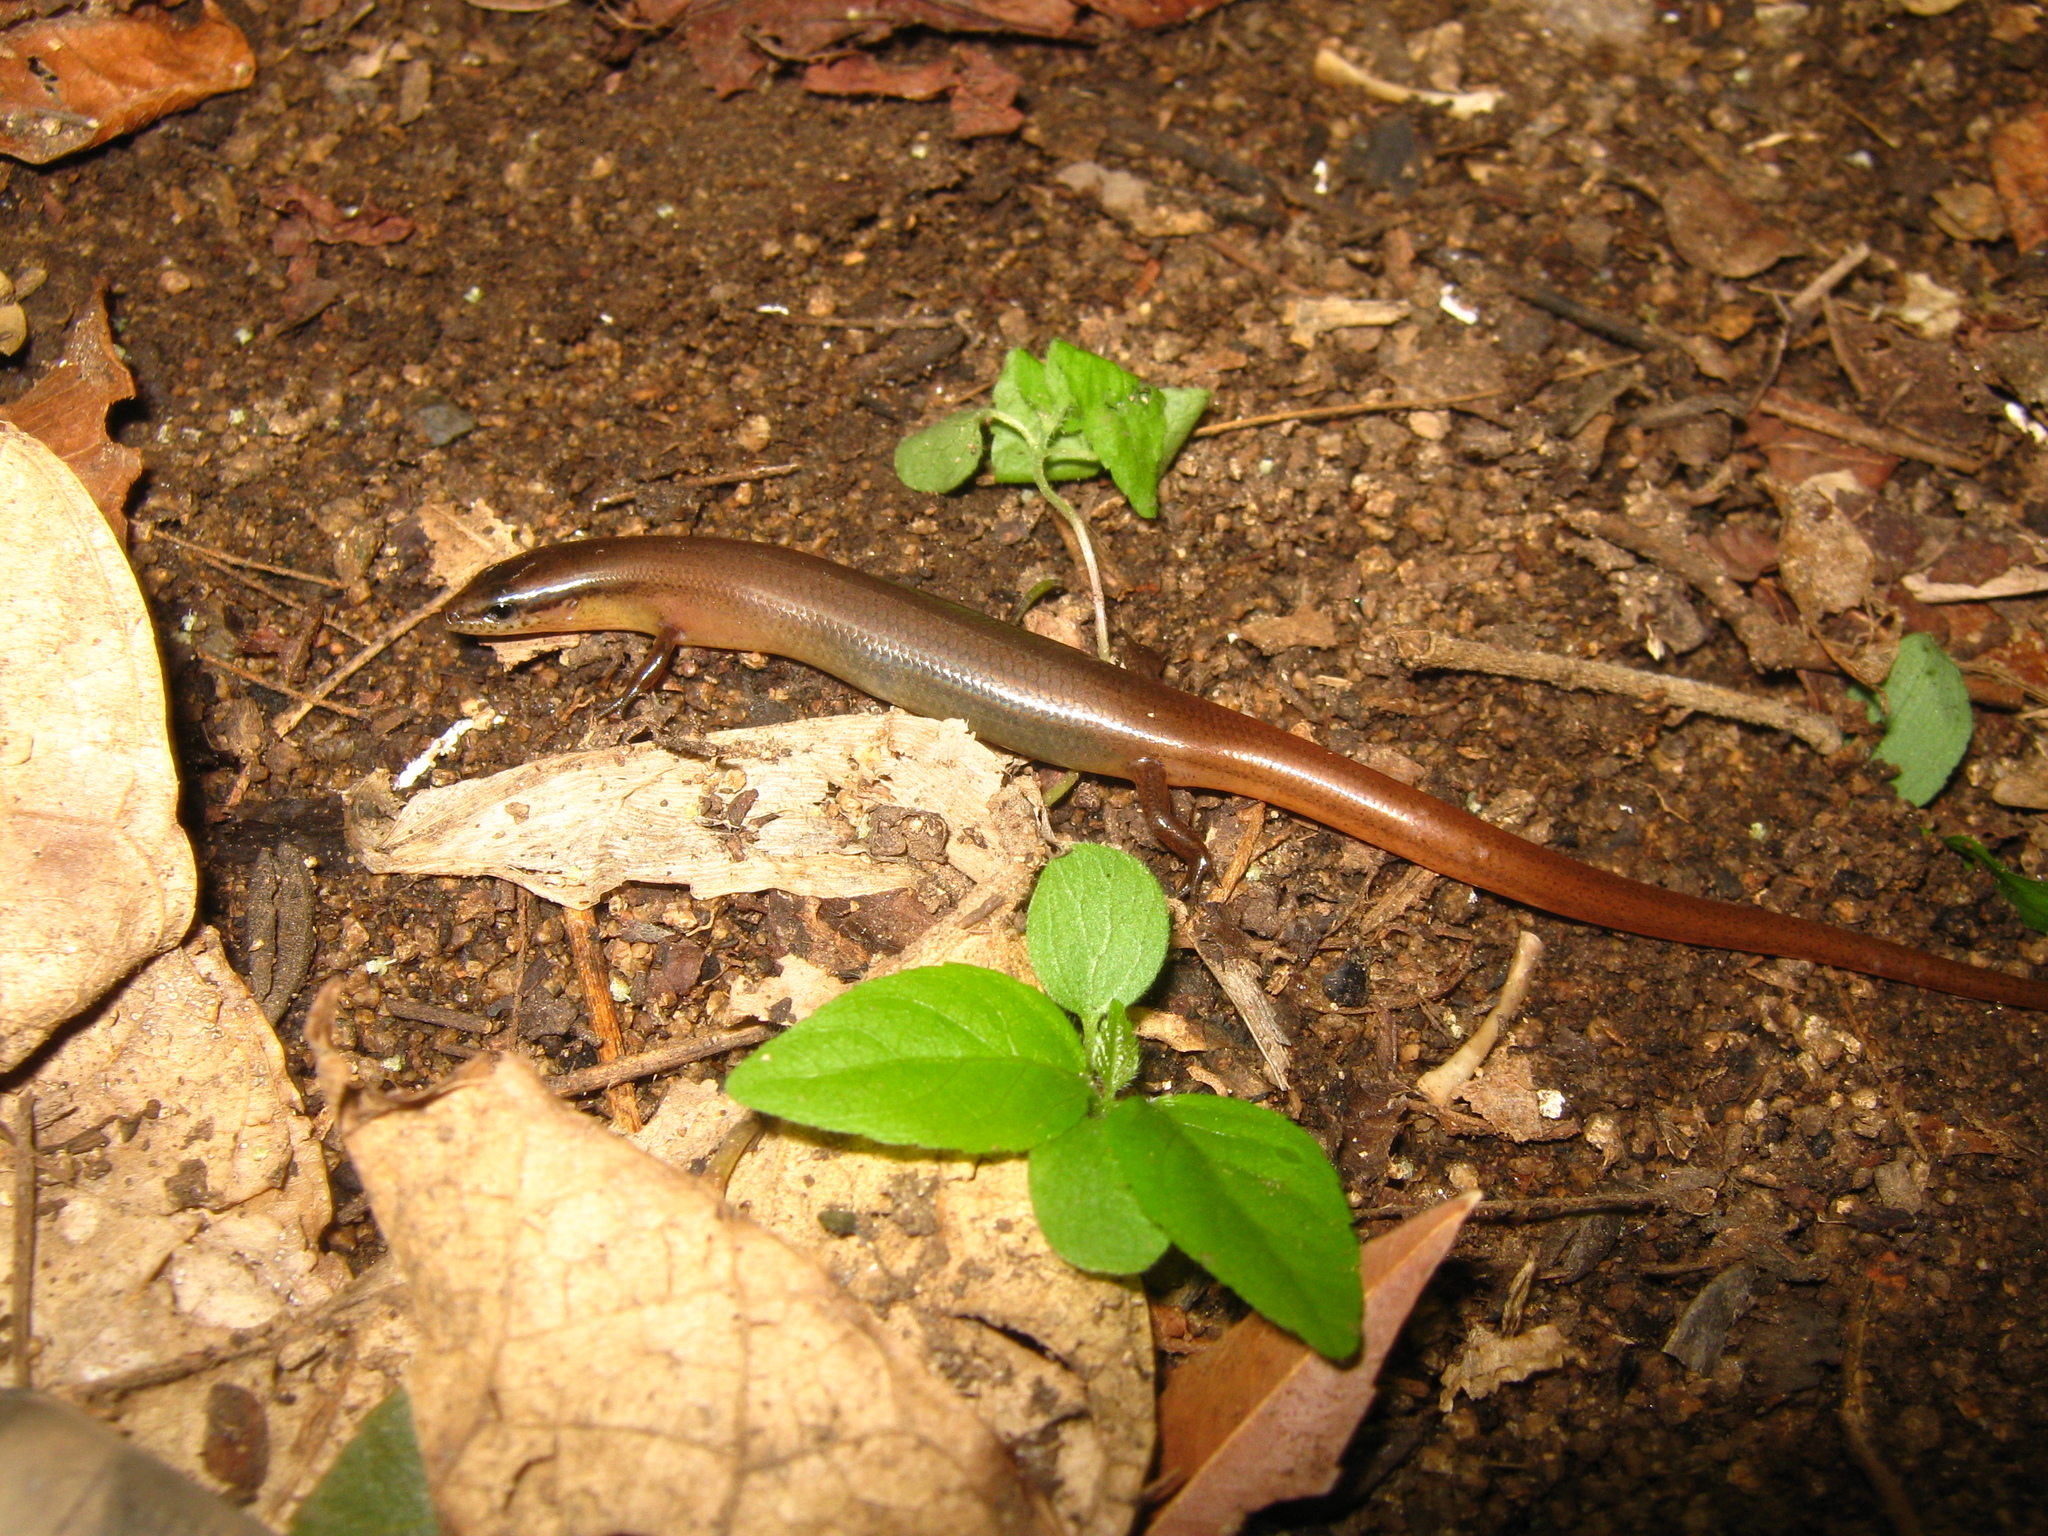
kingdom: Animalia
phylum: Chordata
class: Squamata
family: Scincidae
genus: Scincella
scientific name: Scincella assata
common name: Ground skink
